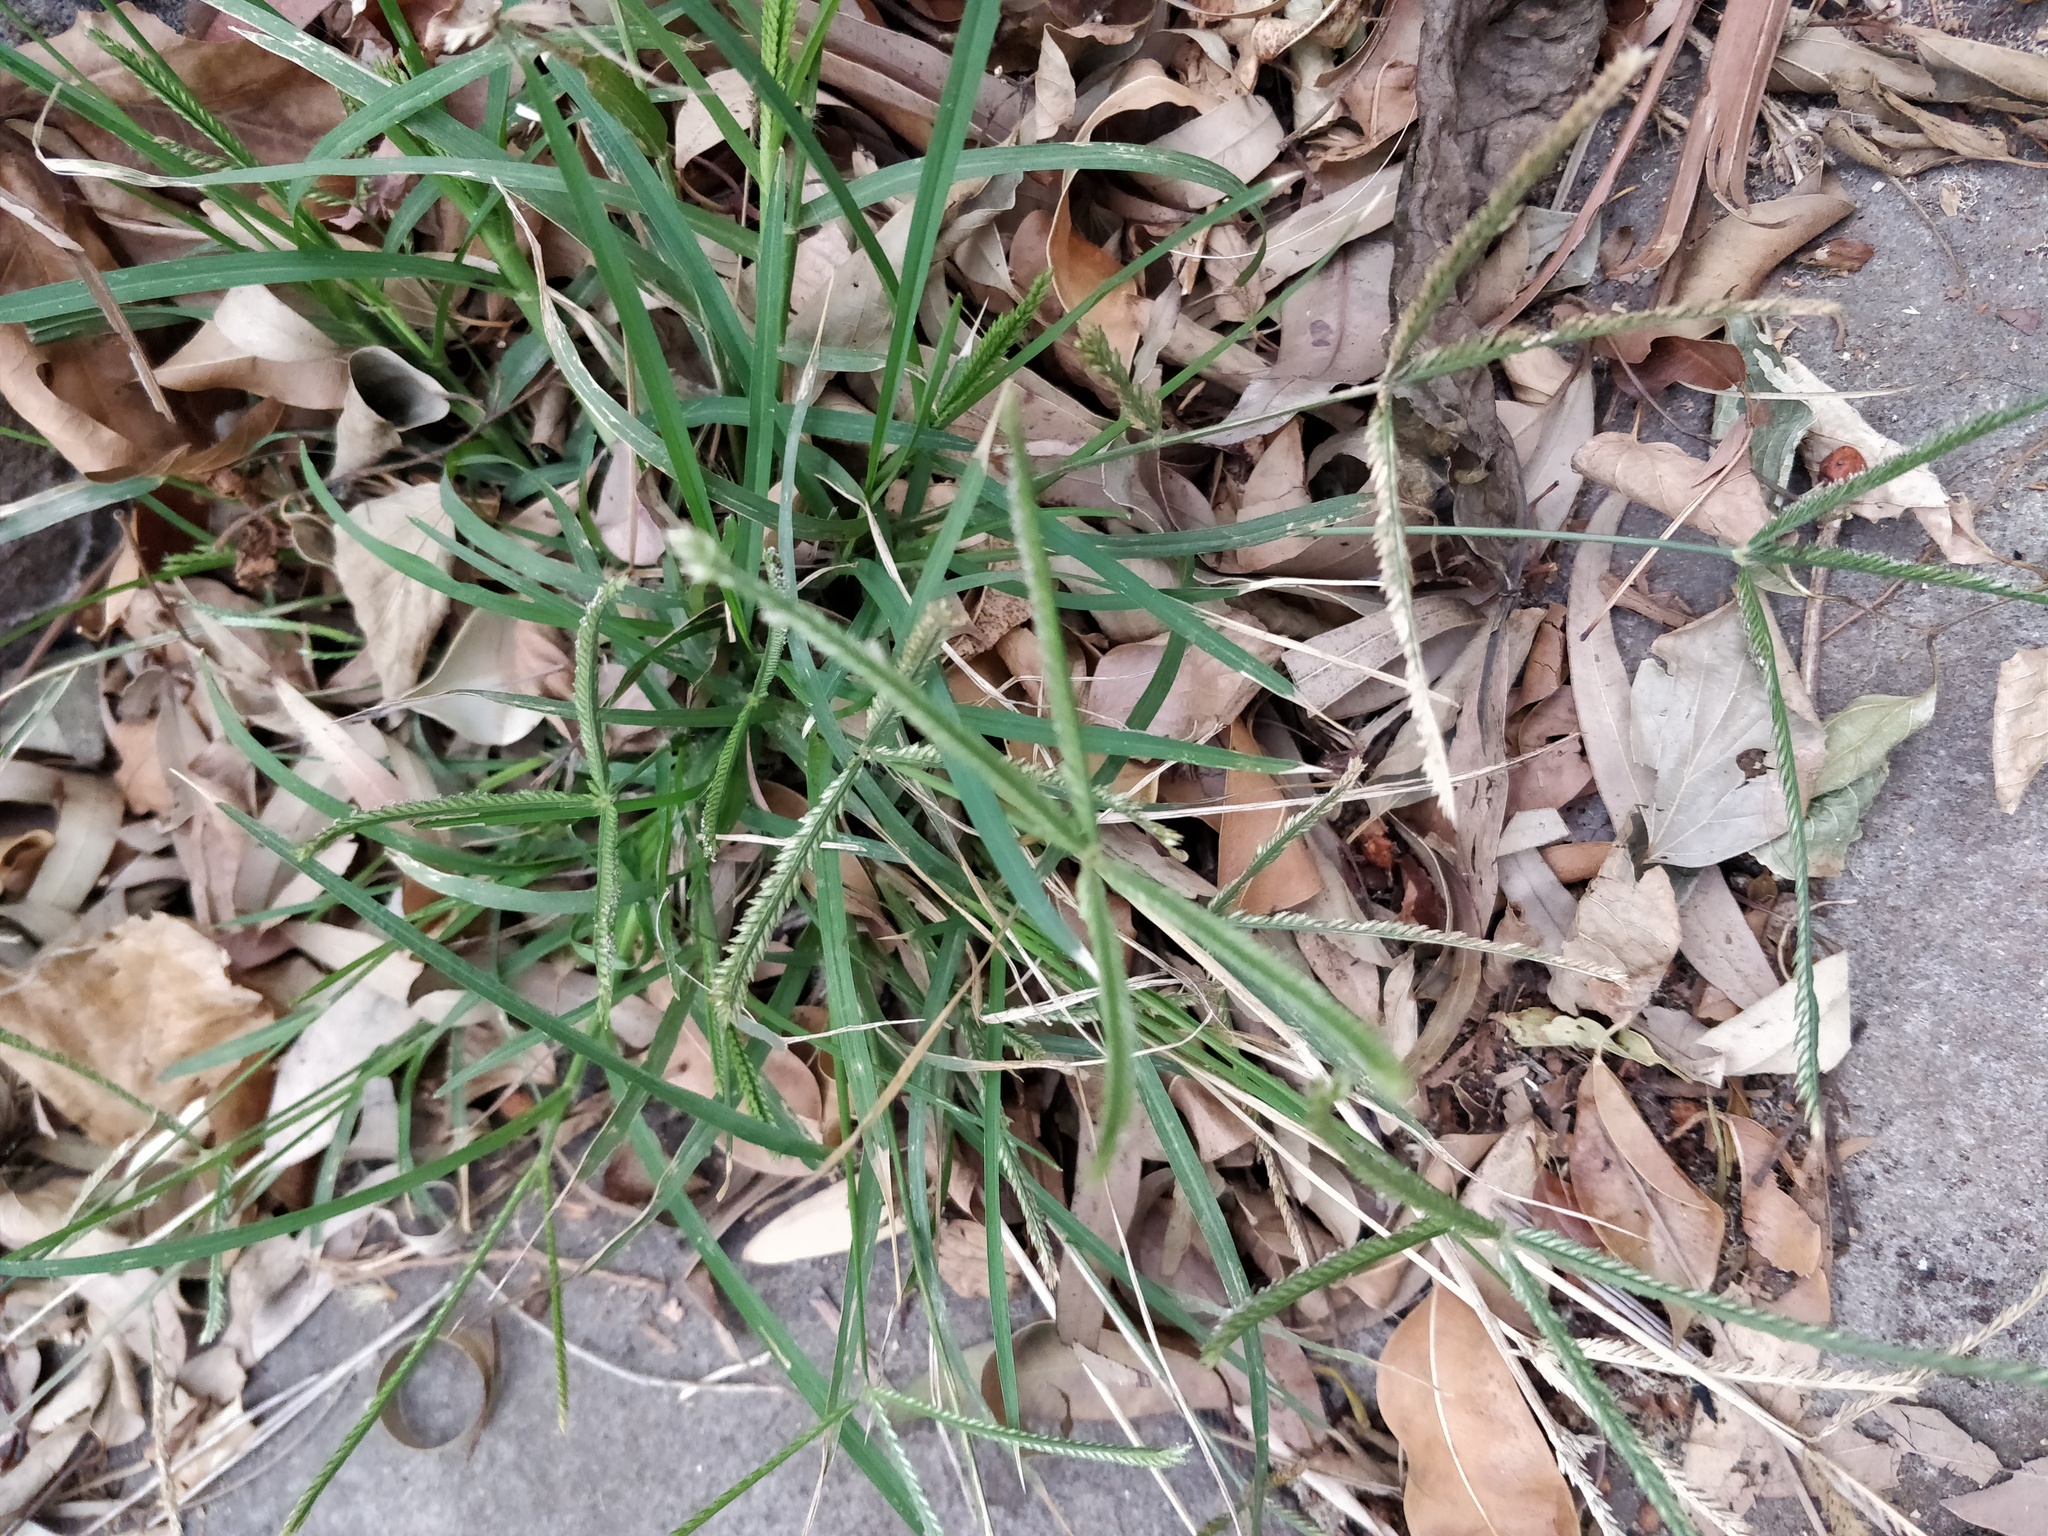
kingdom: Plantae
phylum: Tracheophyta
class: Liliopsida
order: Poales
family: Poaceae
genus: Eleusine
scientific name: Eleusine indica
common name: Yard-grass
